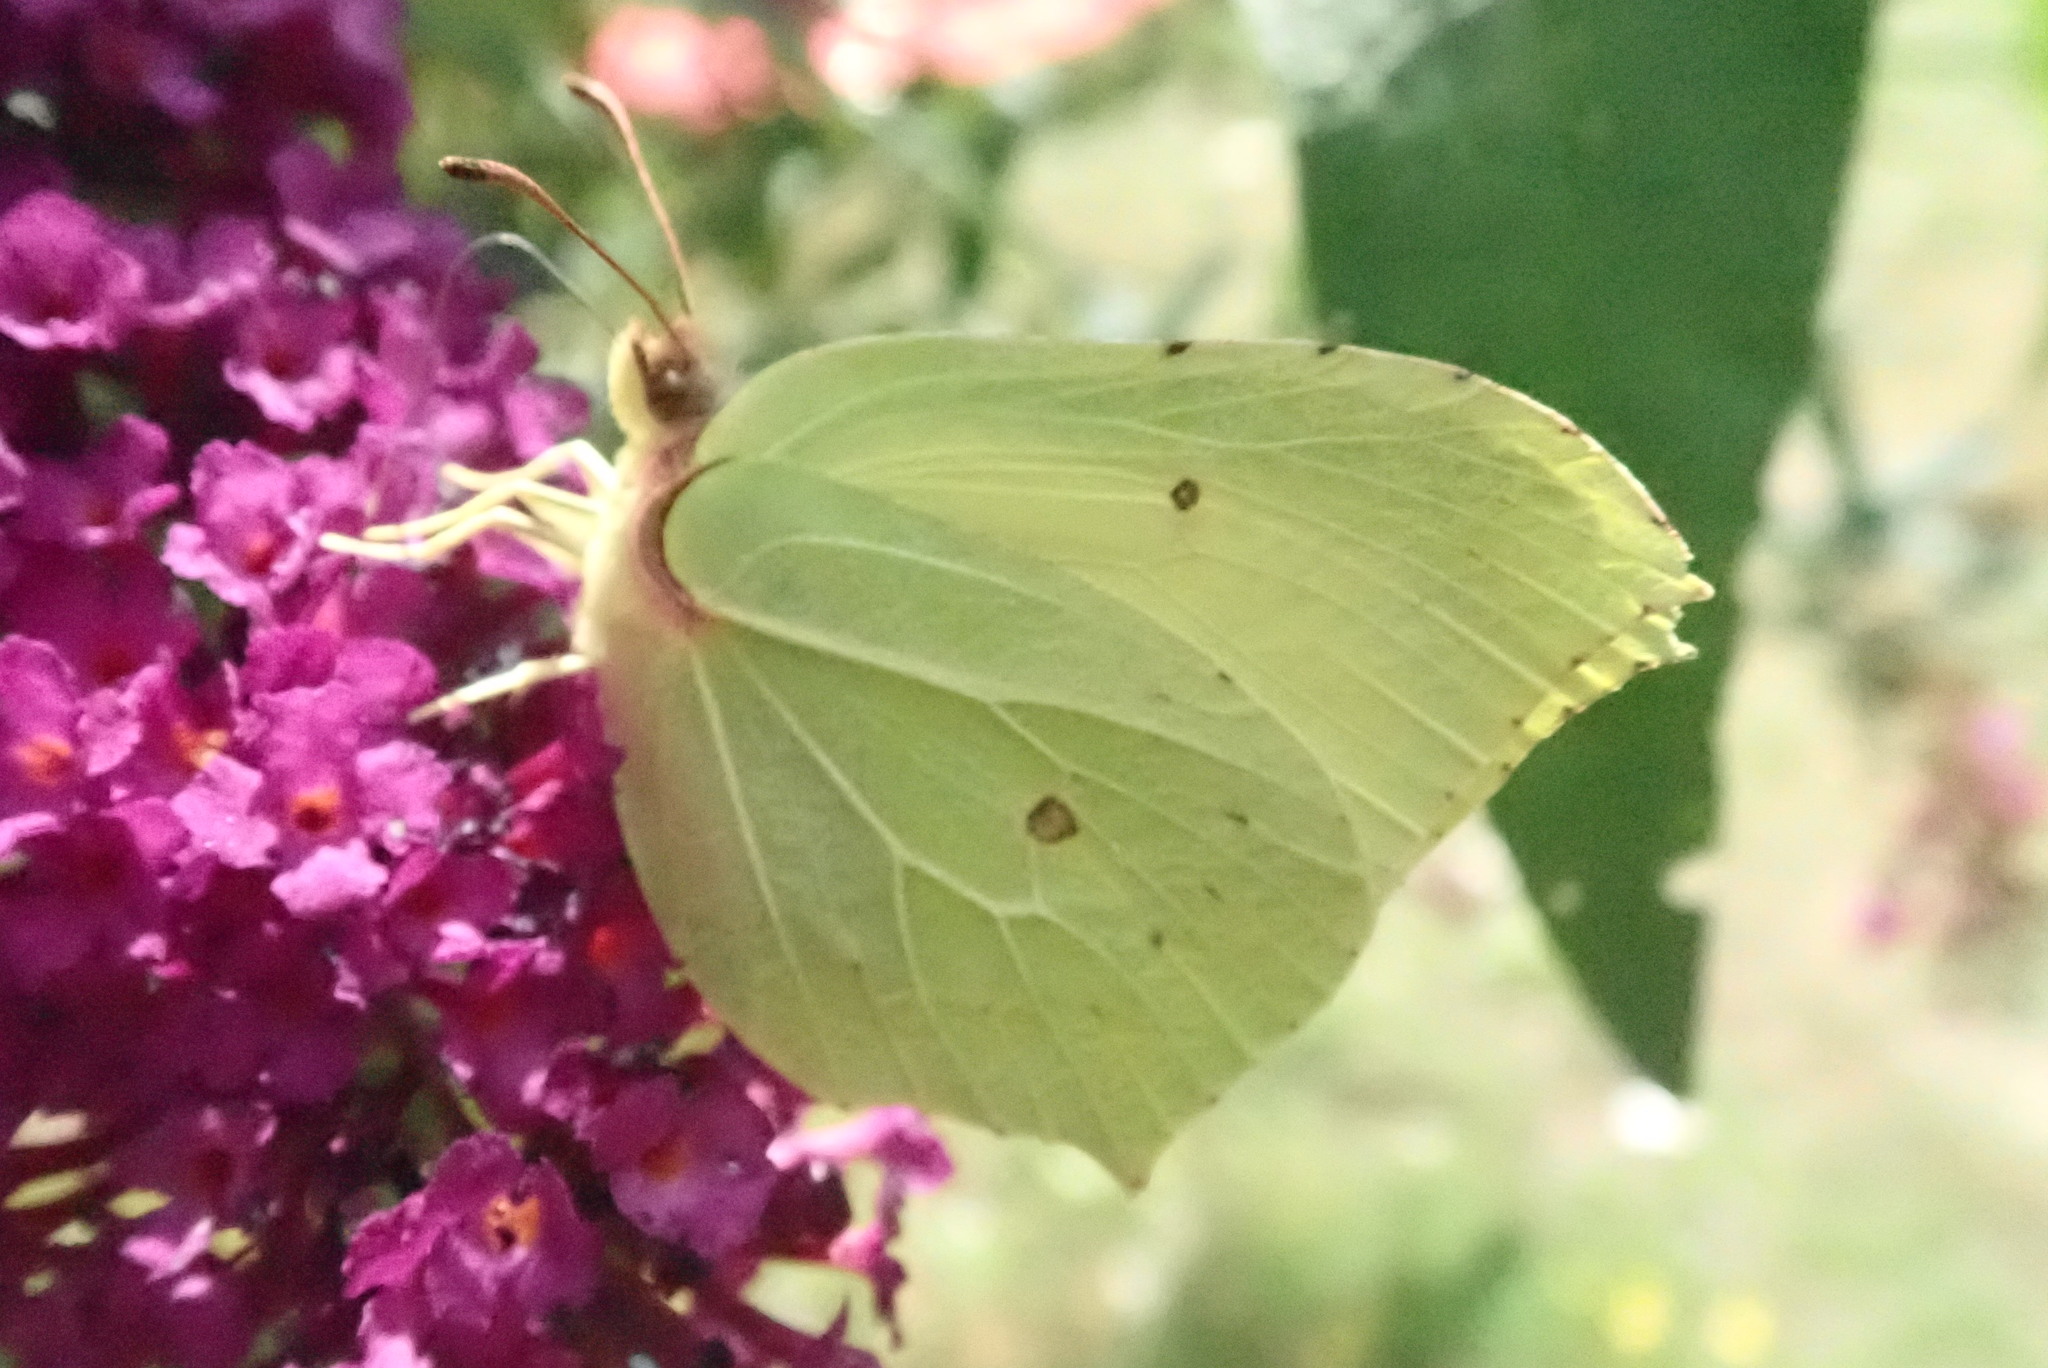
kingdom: Animalia
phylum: Arthropoda
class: Insecta
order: Lepidoptera
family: Pieridae
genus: Gonepteryx
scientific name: Gonepteryx rhamni
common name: Brimstone
